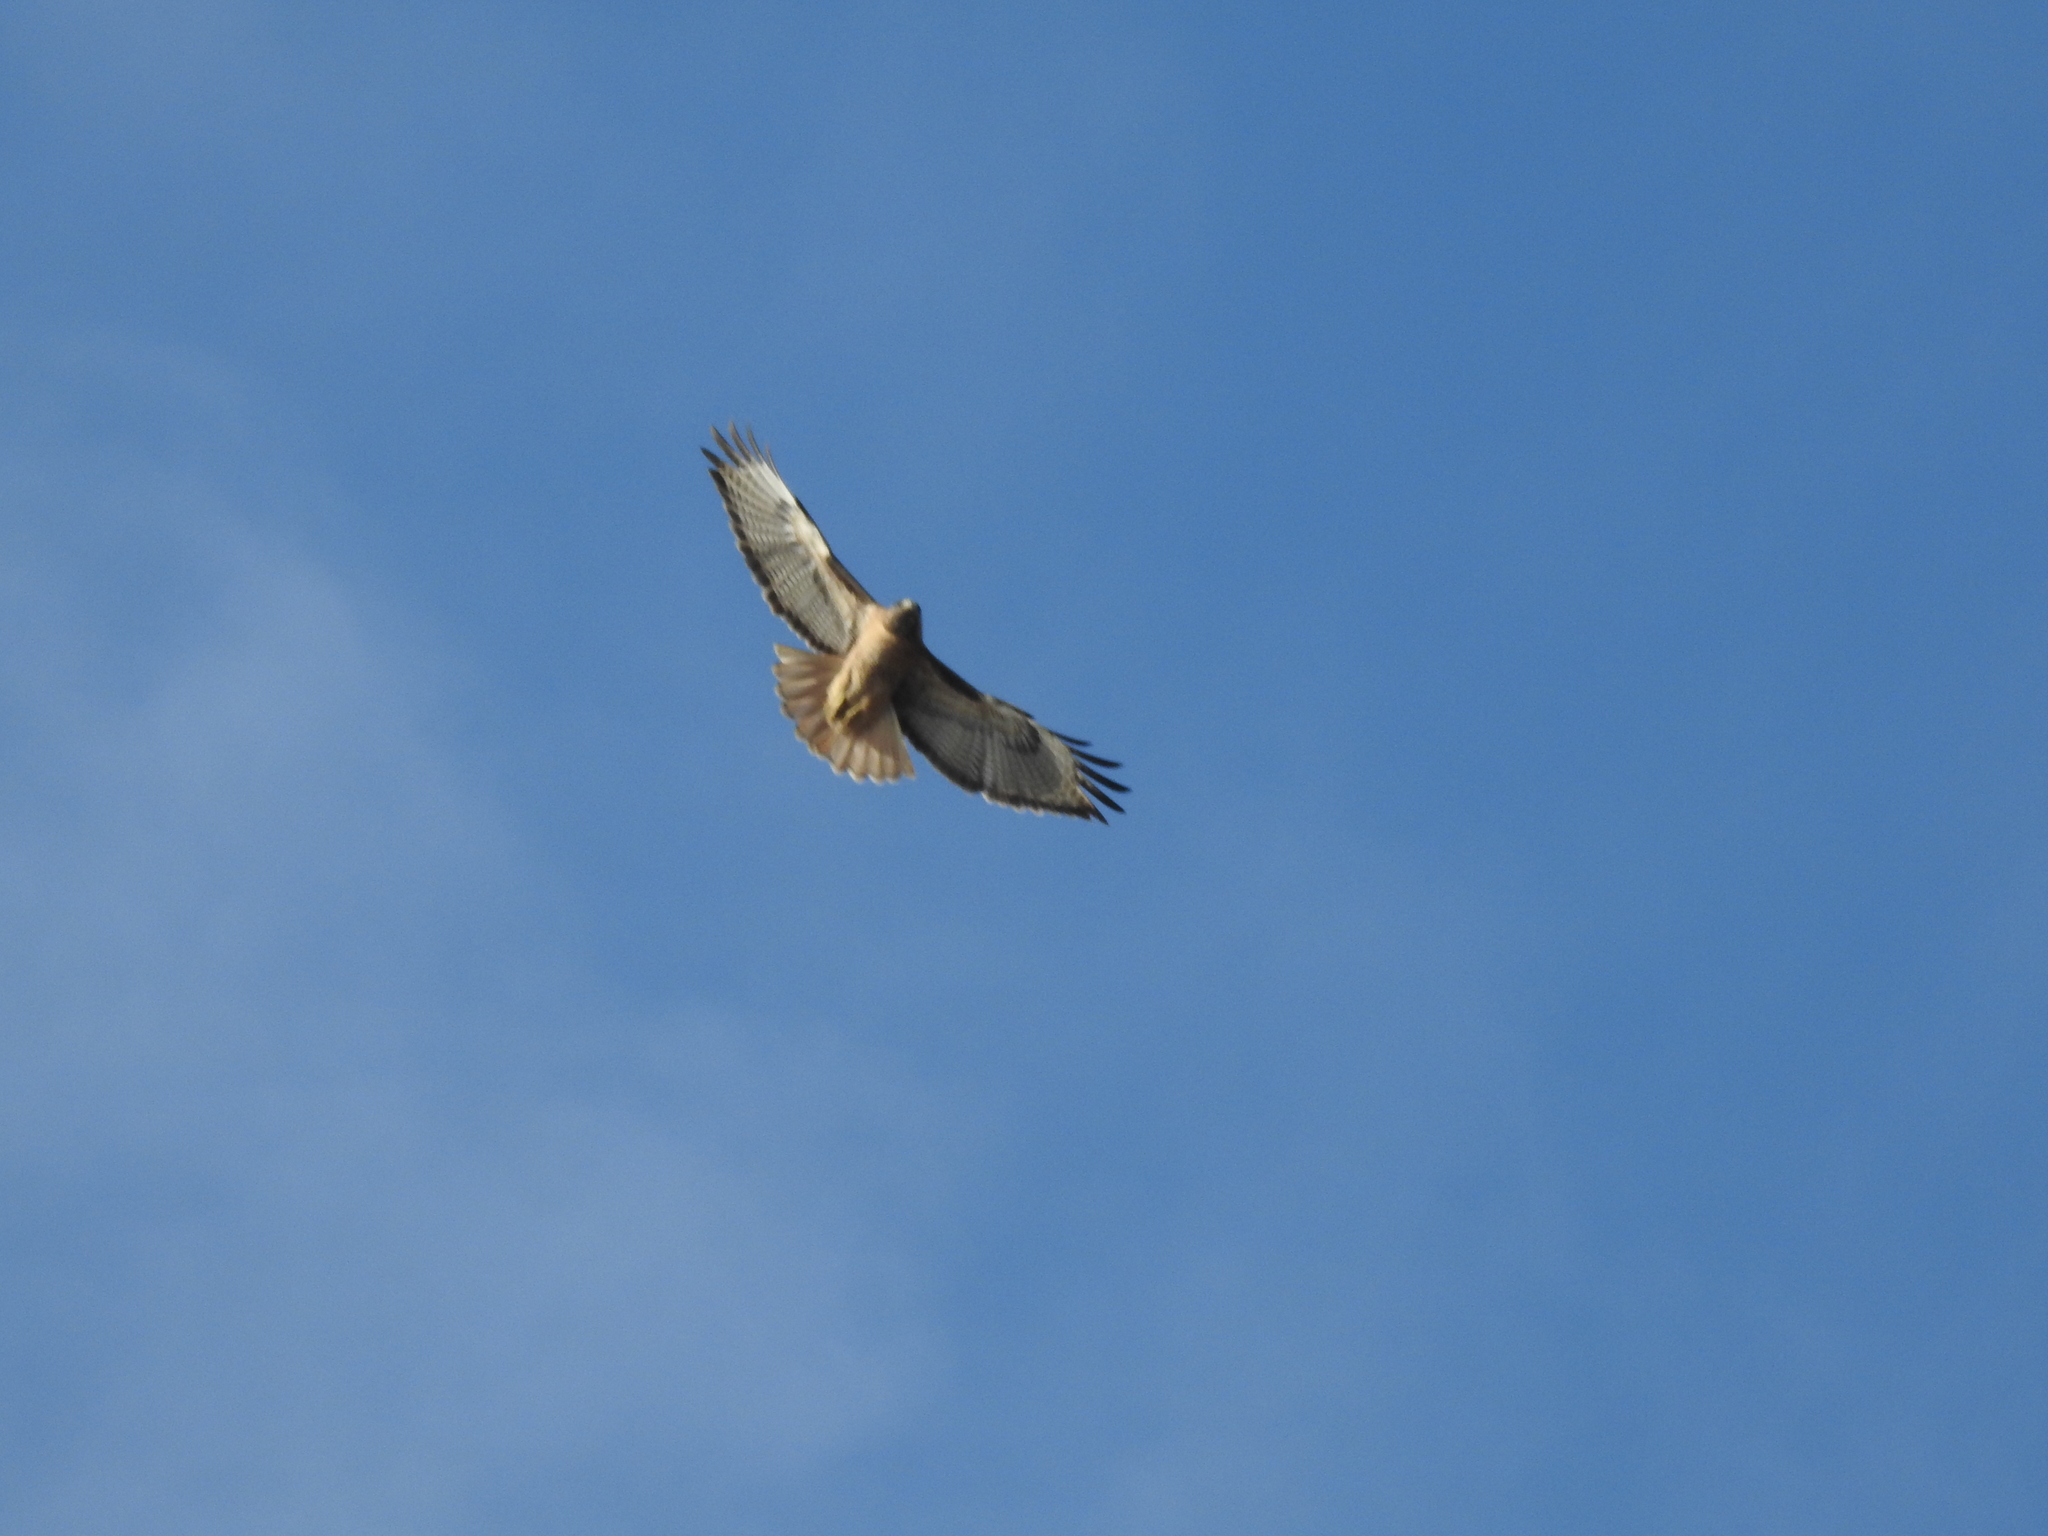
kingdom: Animalia
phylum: Chordata
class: Aves
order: Accipitriformes
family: Accipitridae
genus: Buteo
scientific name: Buteo jamaicensis
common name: Red-tailed hawk
